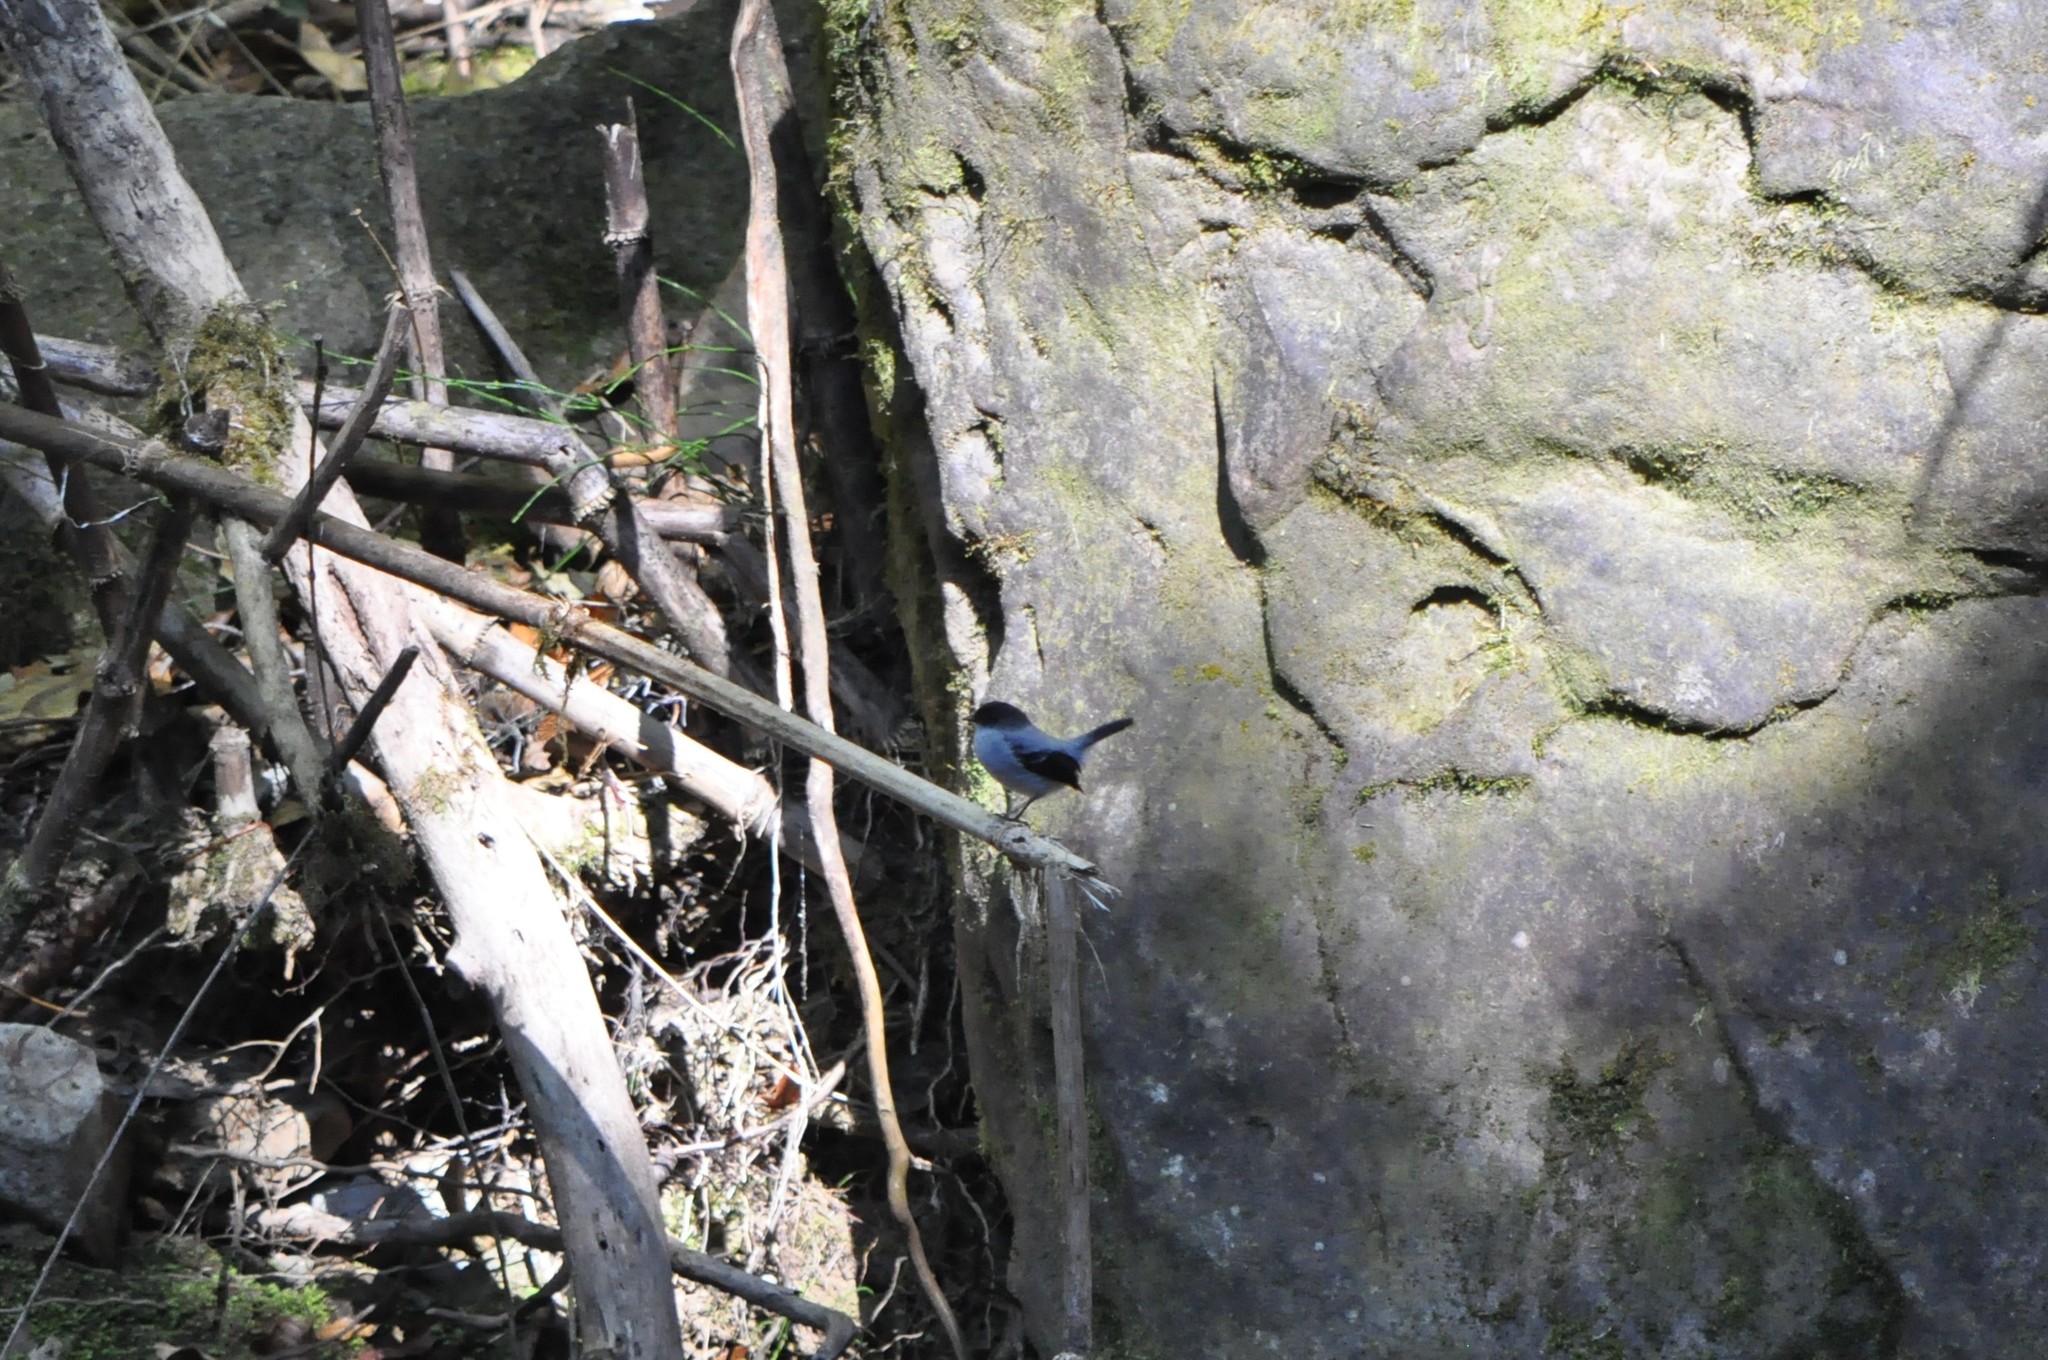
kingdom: Animalia
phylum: Chordata
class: Aves
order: Passeriformes
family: Tyrannidae
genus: Serpophaga
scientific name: Serpophaga cinerea
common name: Torrent tyrannulet
